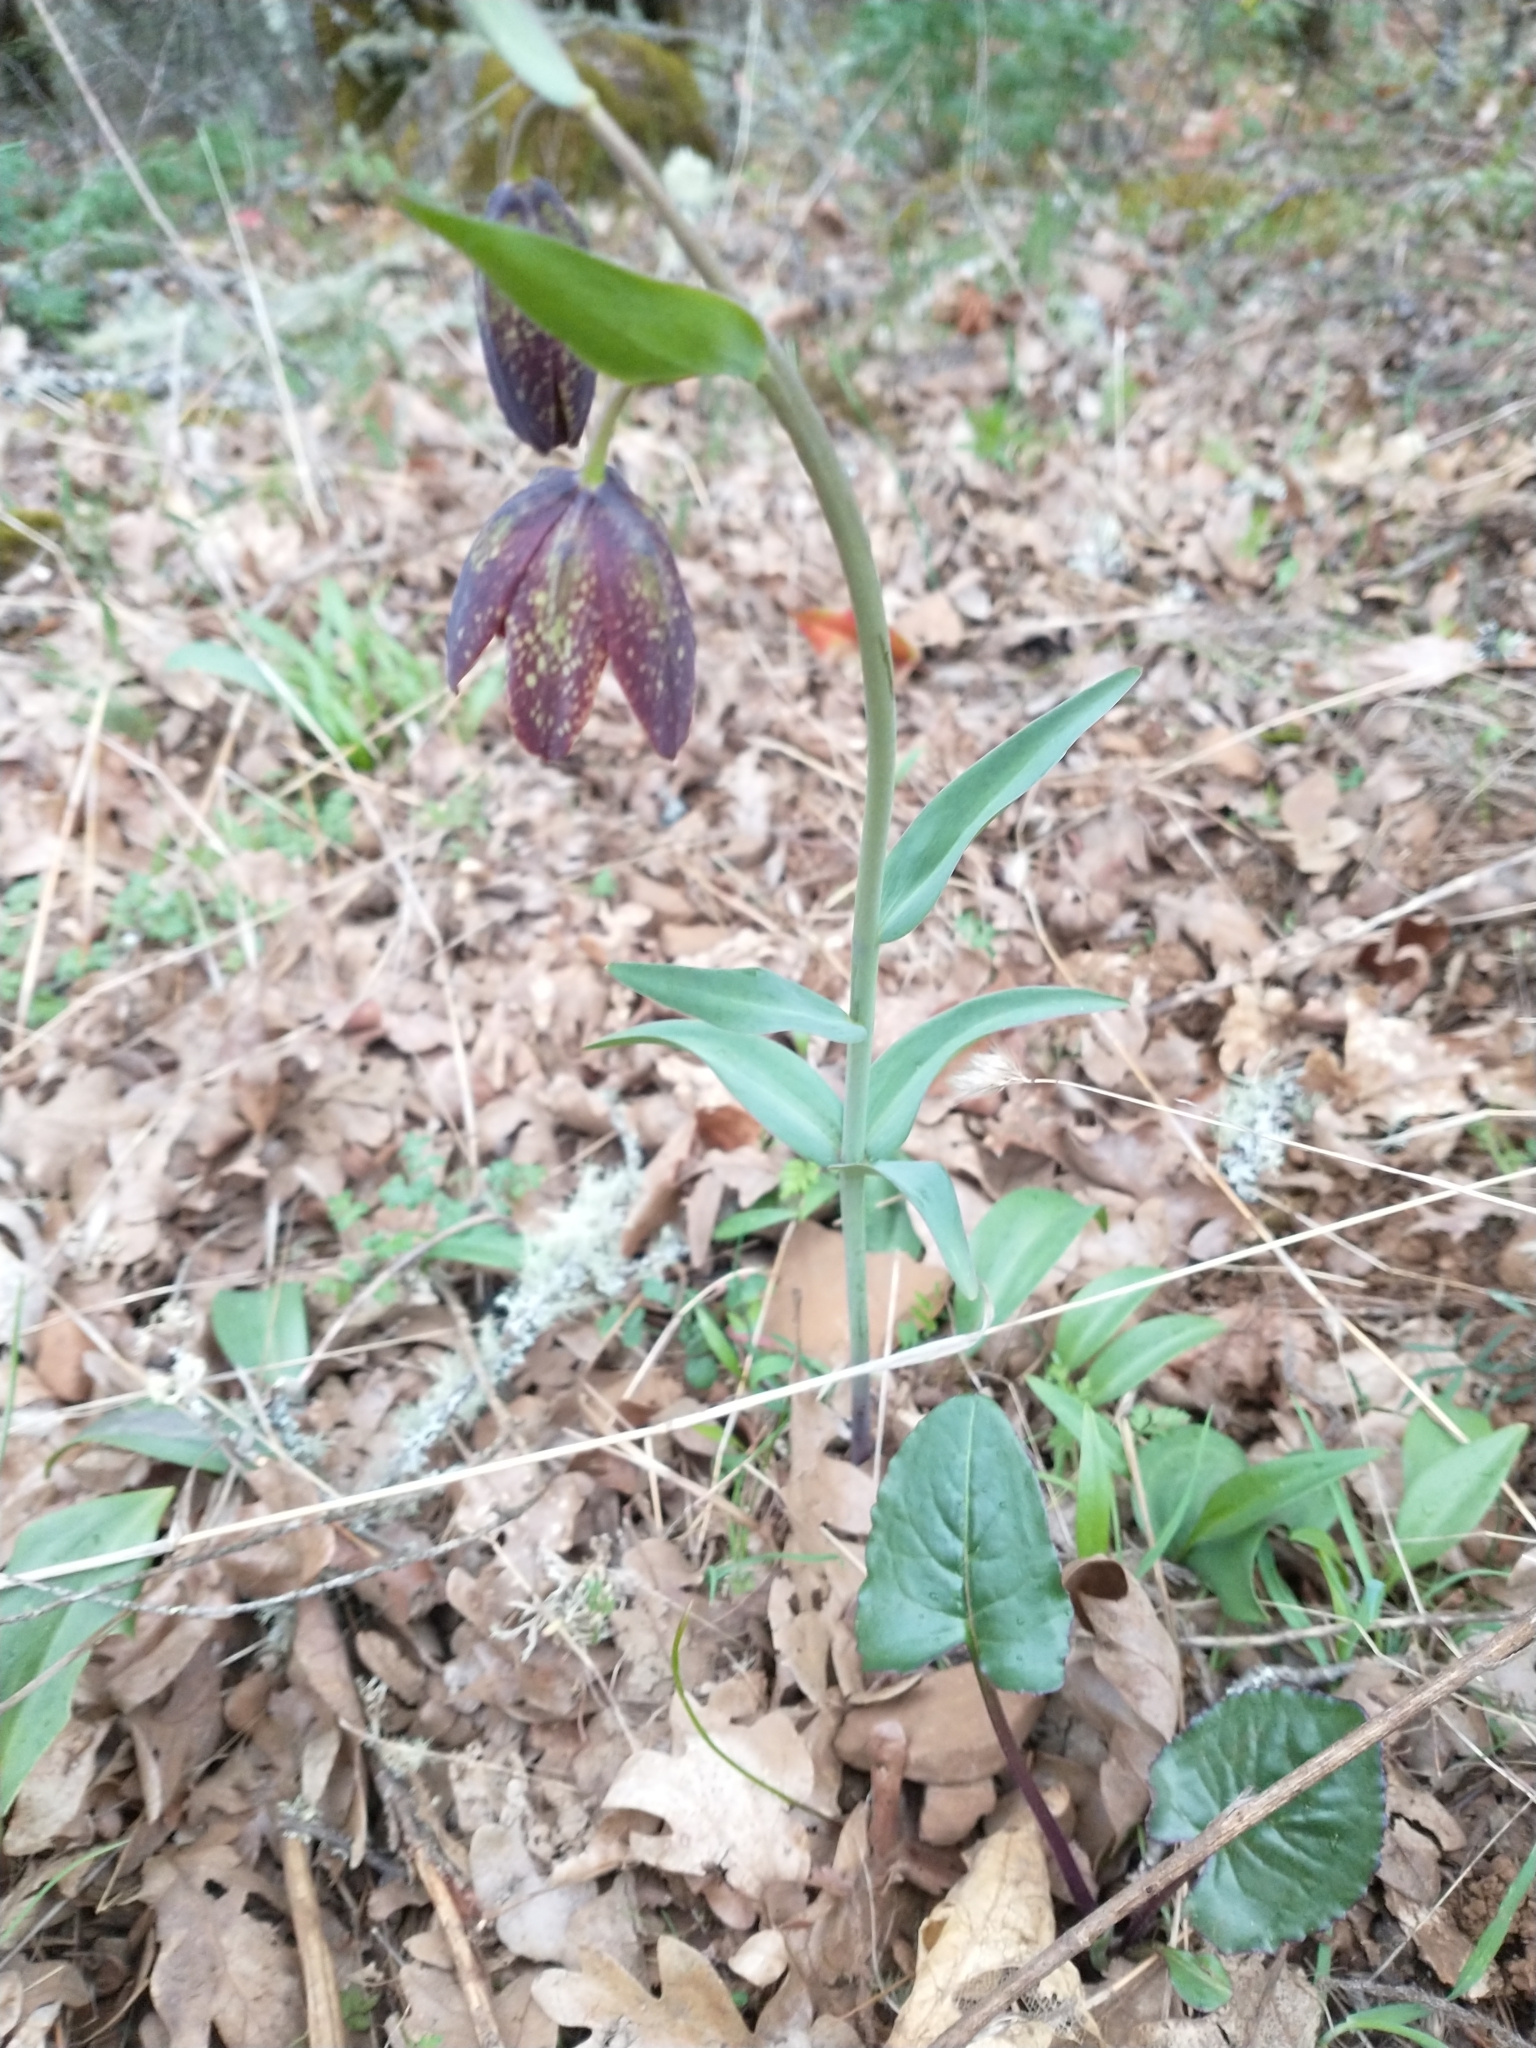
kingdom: Plantae
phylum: Tracheophyta
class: Liliopsida
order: Liliales
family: Liliaceae
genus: Fritillaria
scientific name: Fritillaria affinis
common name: Ojai fritillary
